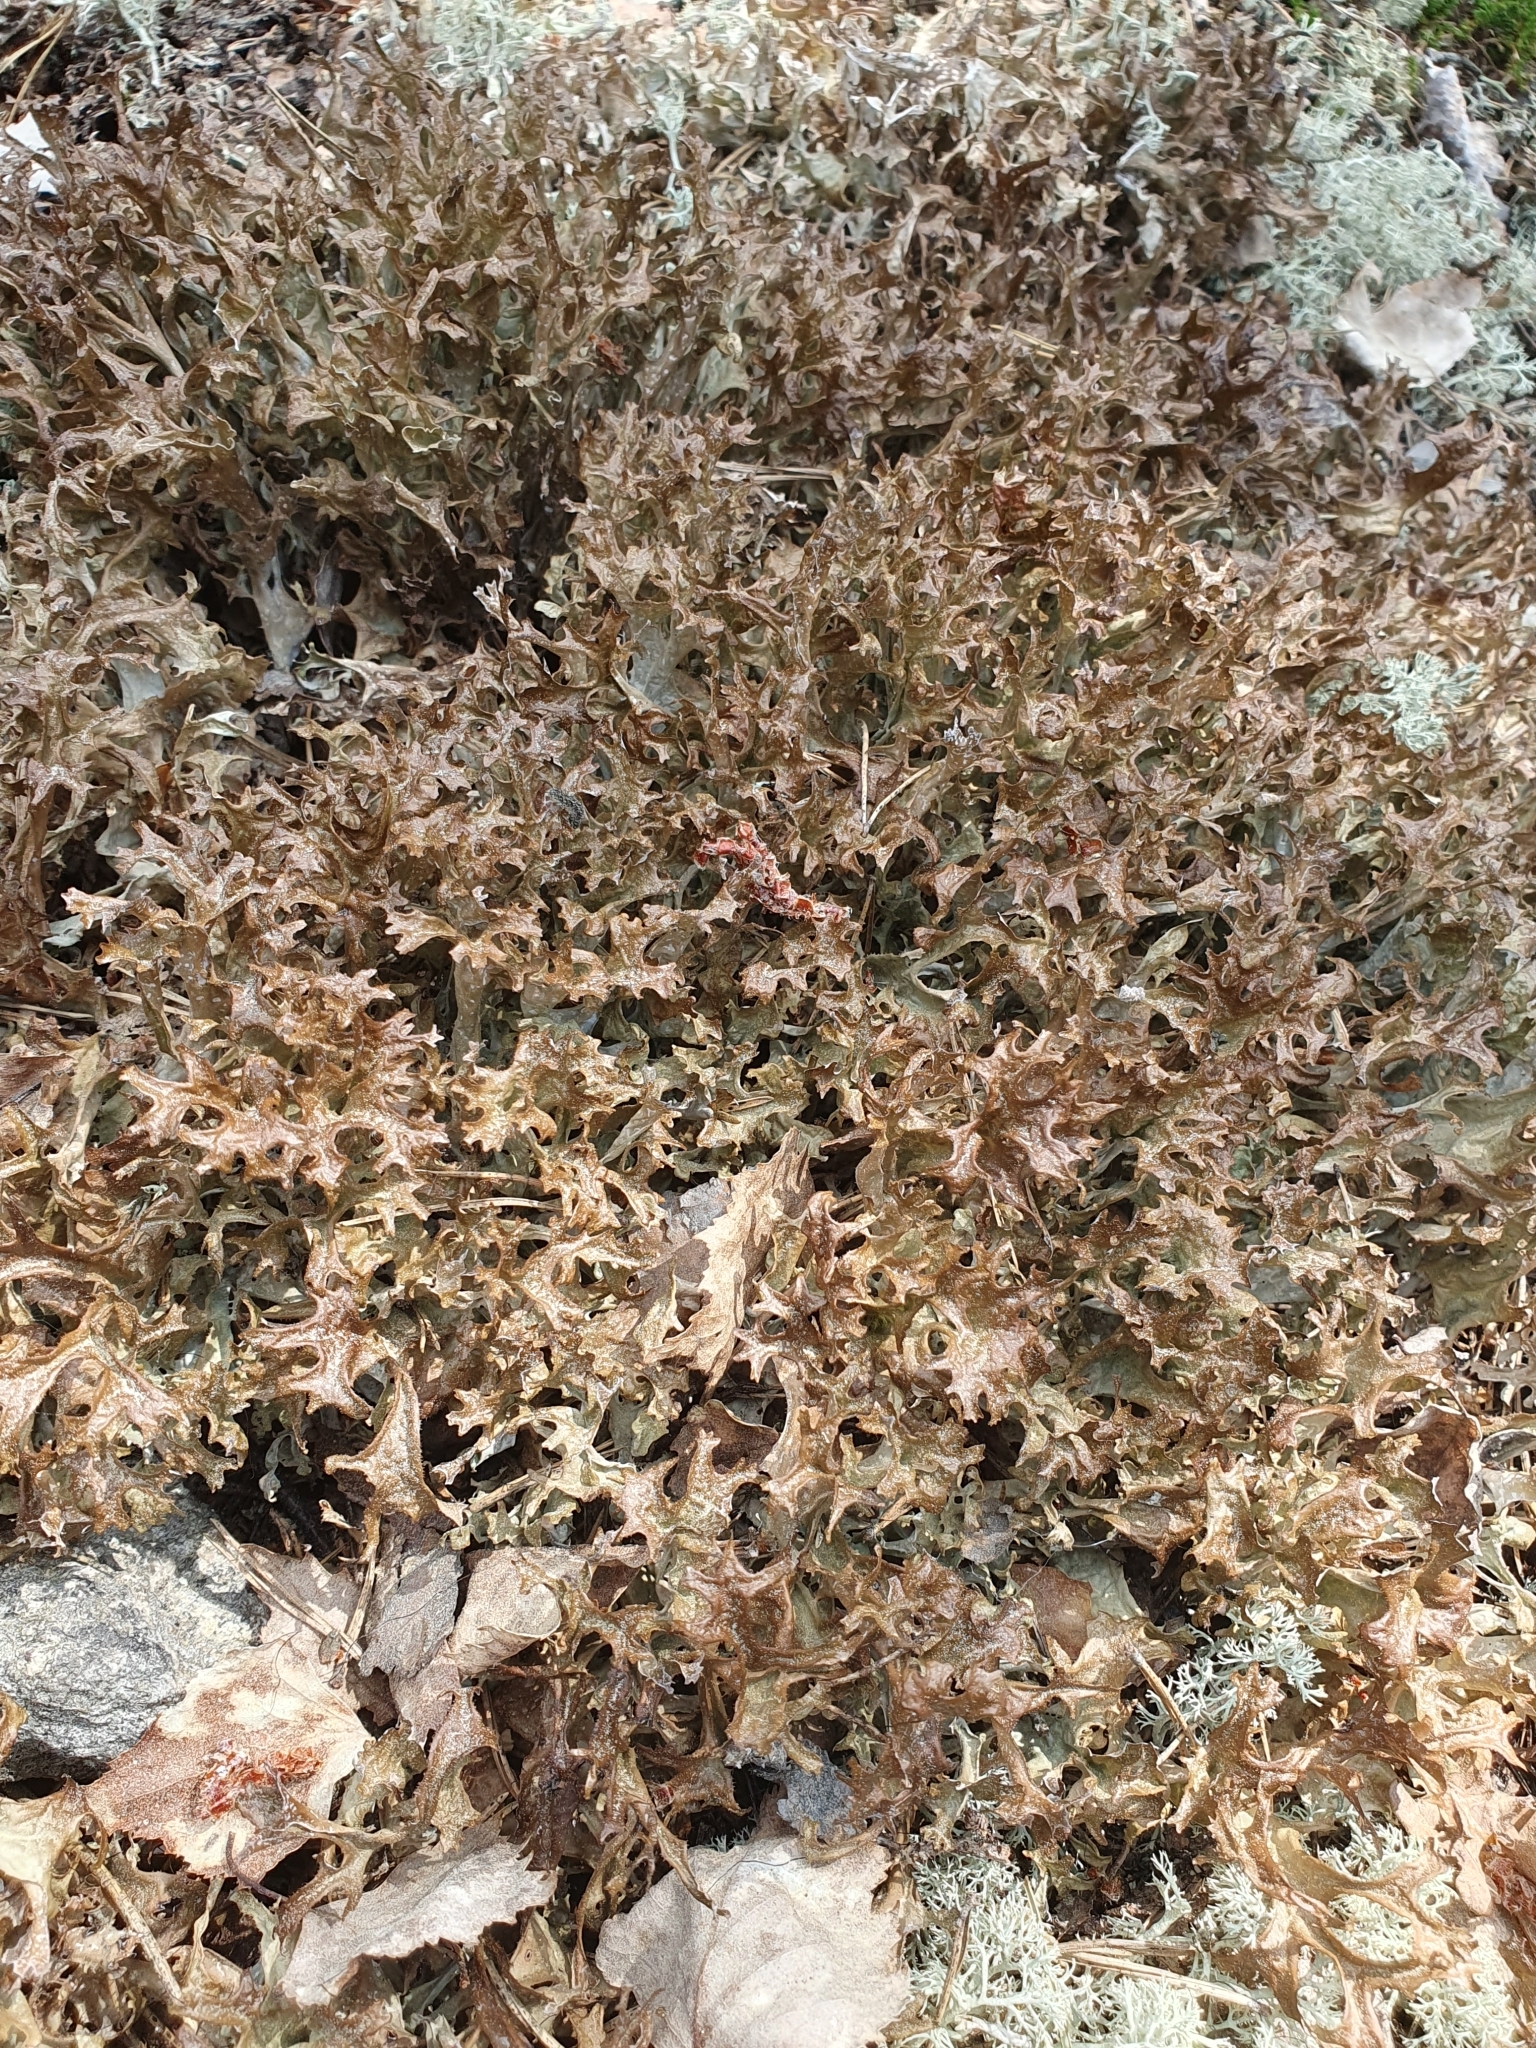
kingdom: Fungi
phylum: Ascomycota
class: Lecanoromycetes
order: Lecanorales
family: Parmeliaceae
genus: Cetraria
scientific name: Cetraria islandica
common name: Iceland lichen
